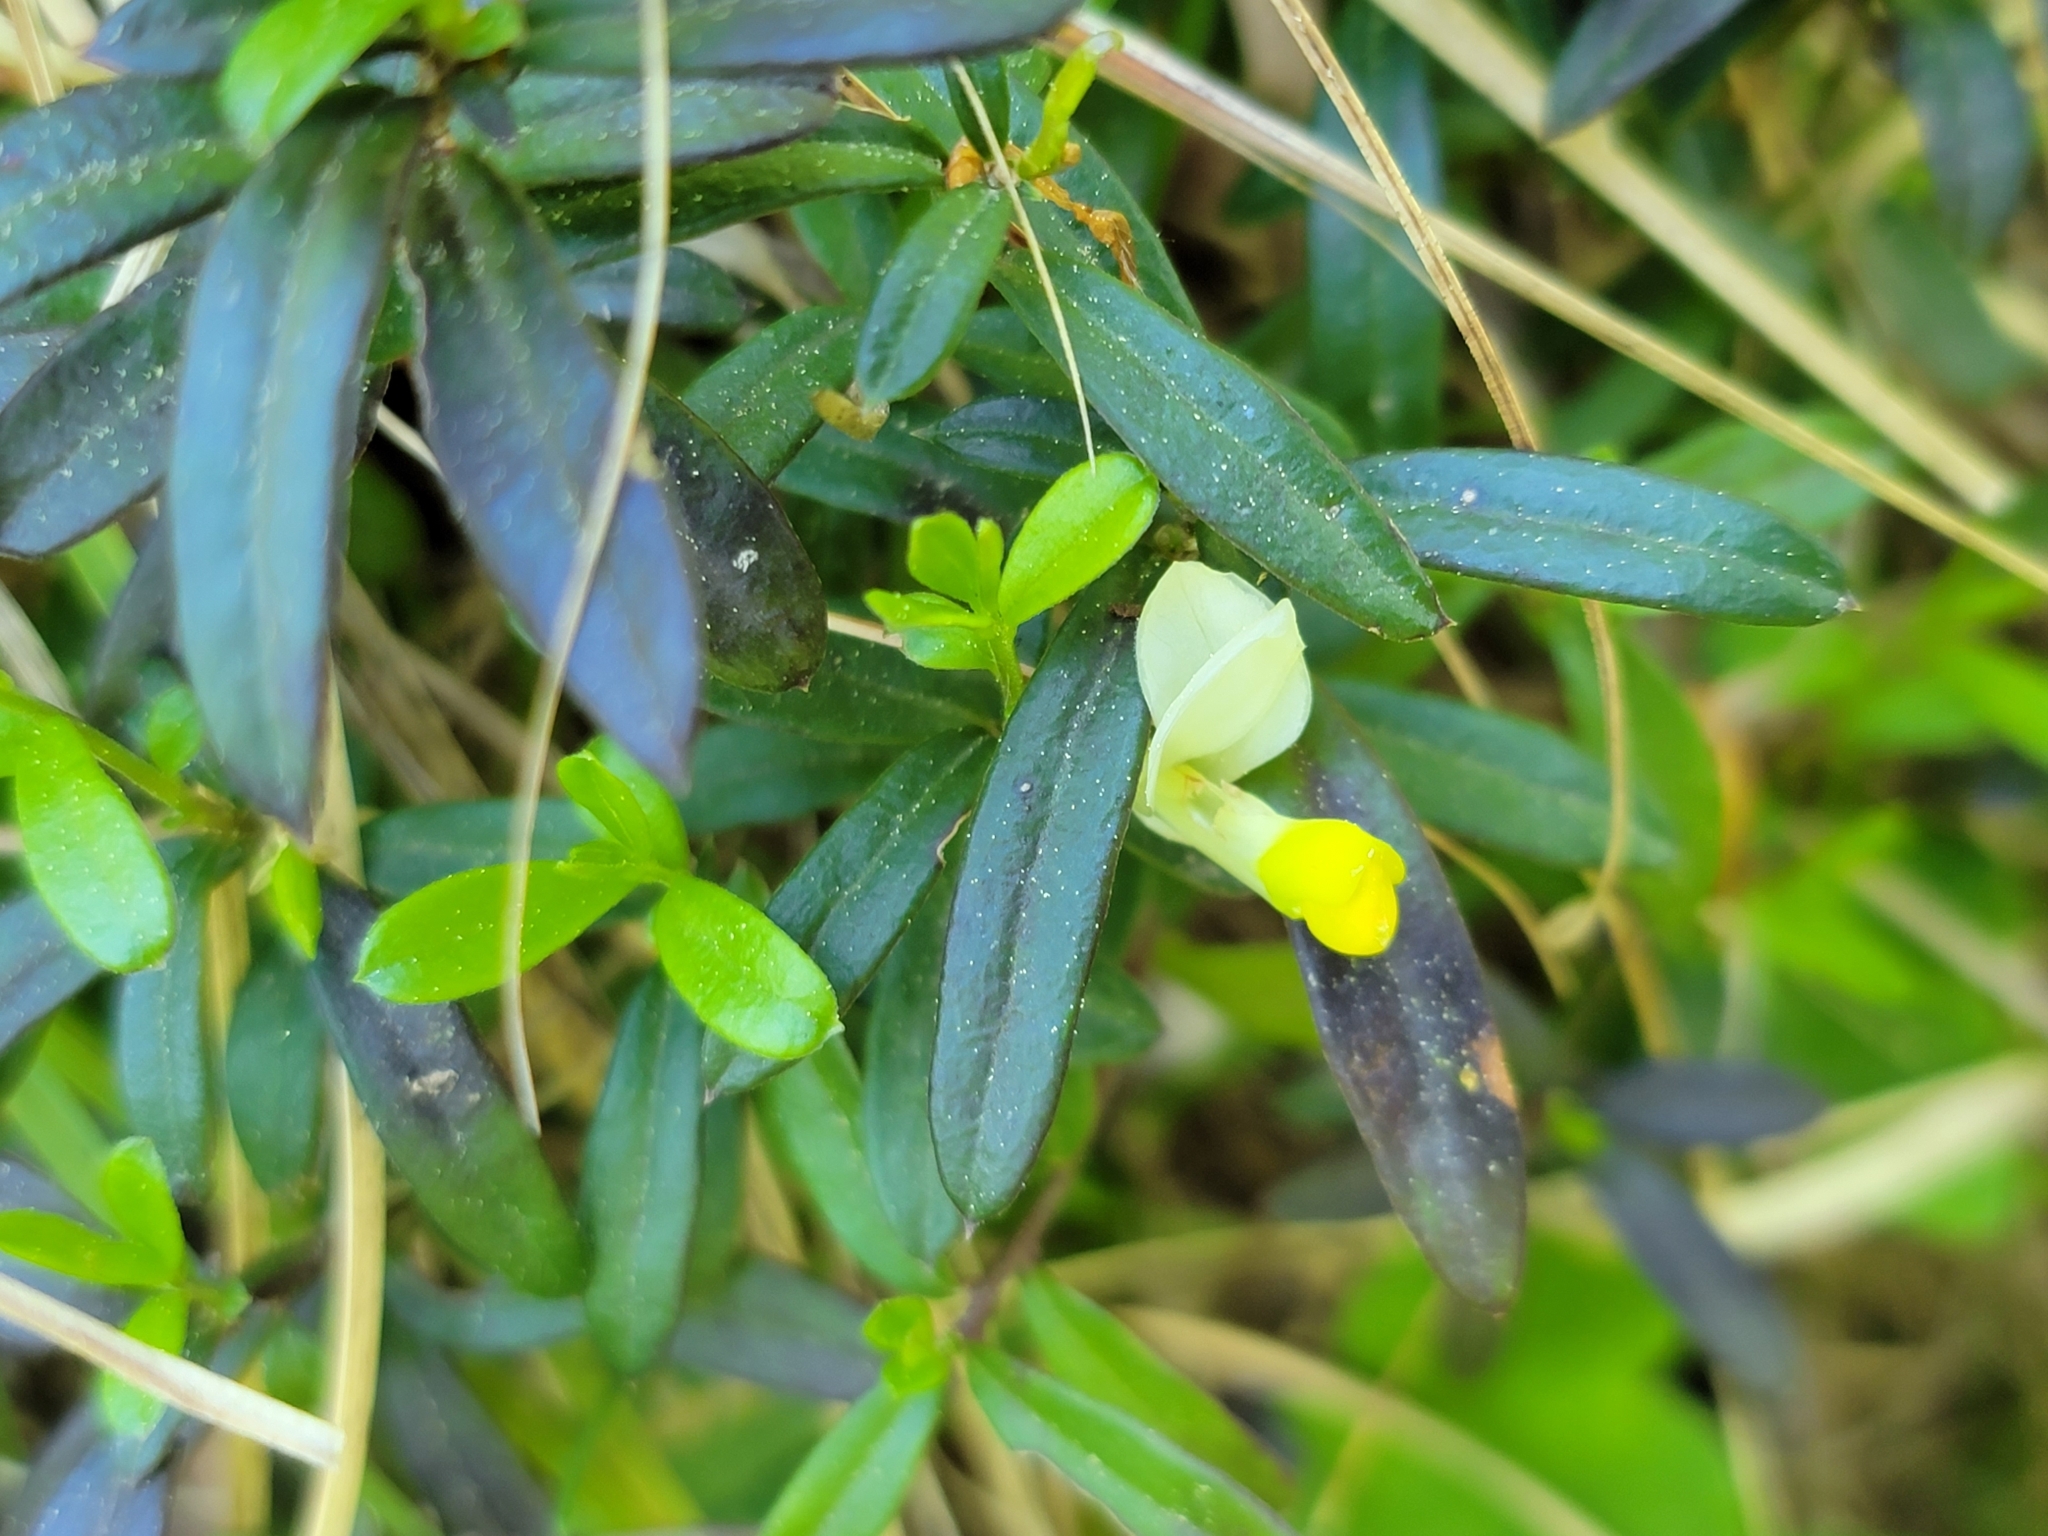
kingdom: Plantae
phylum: Tracheophyta
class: Magnoliopsida
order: Fabales
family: Polygalaceae
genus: Polygaloides
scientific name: Polygaloides chamaebuxus
